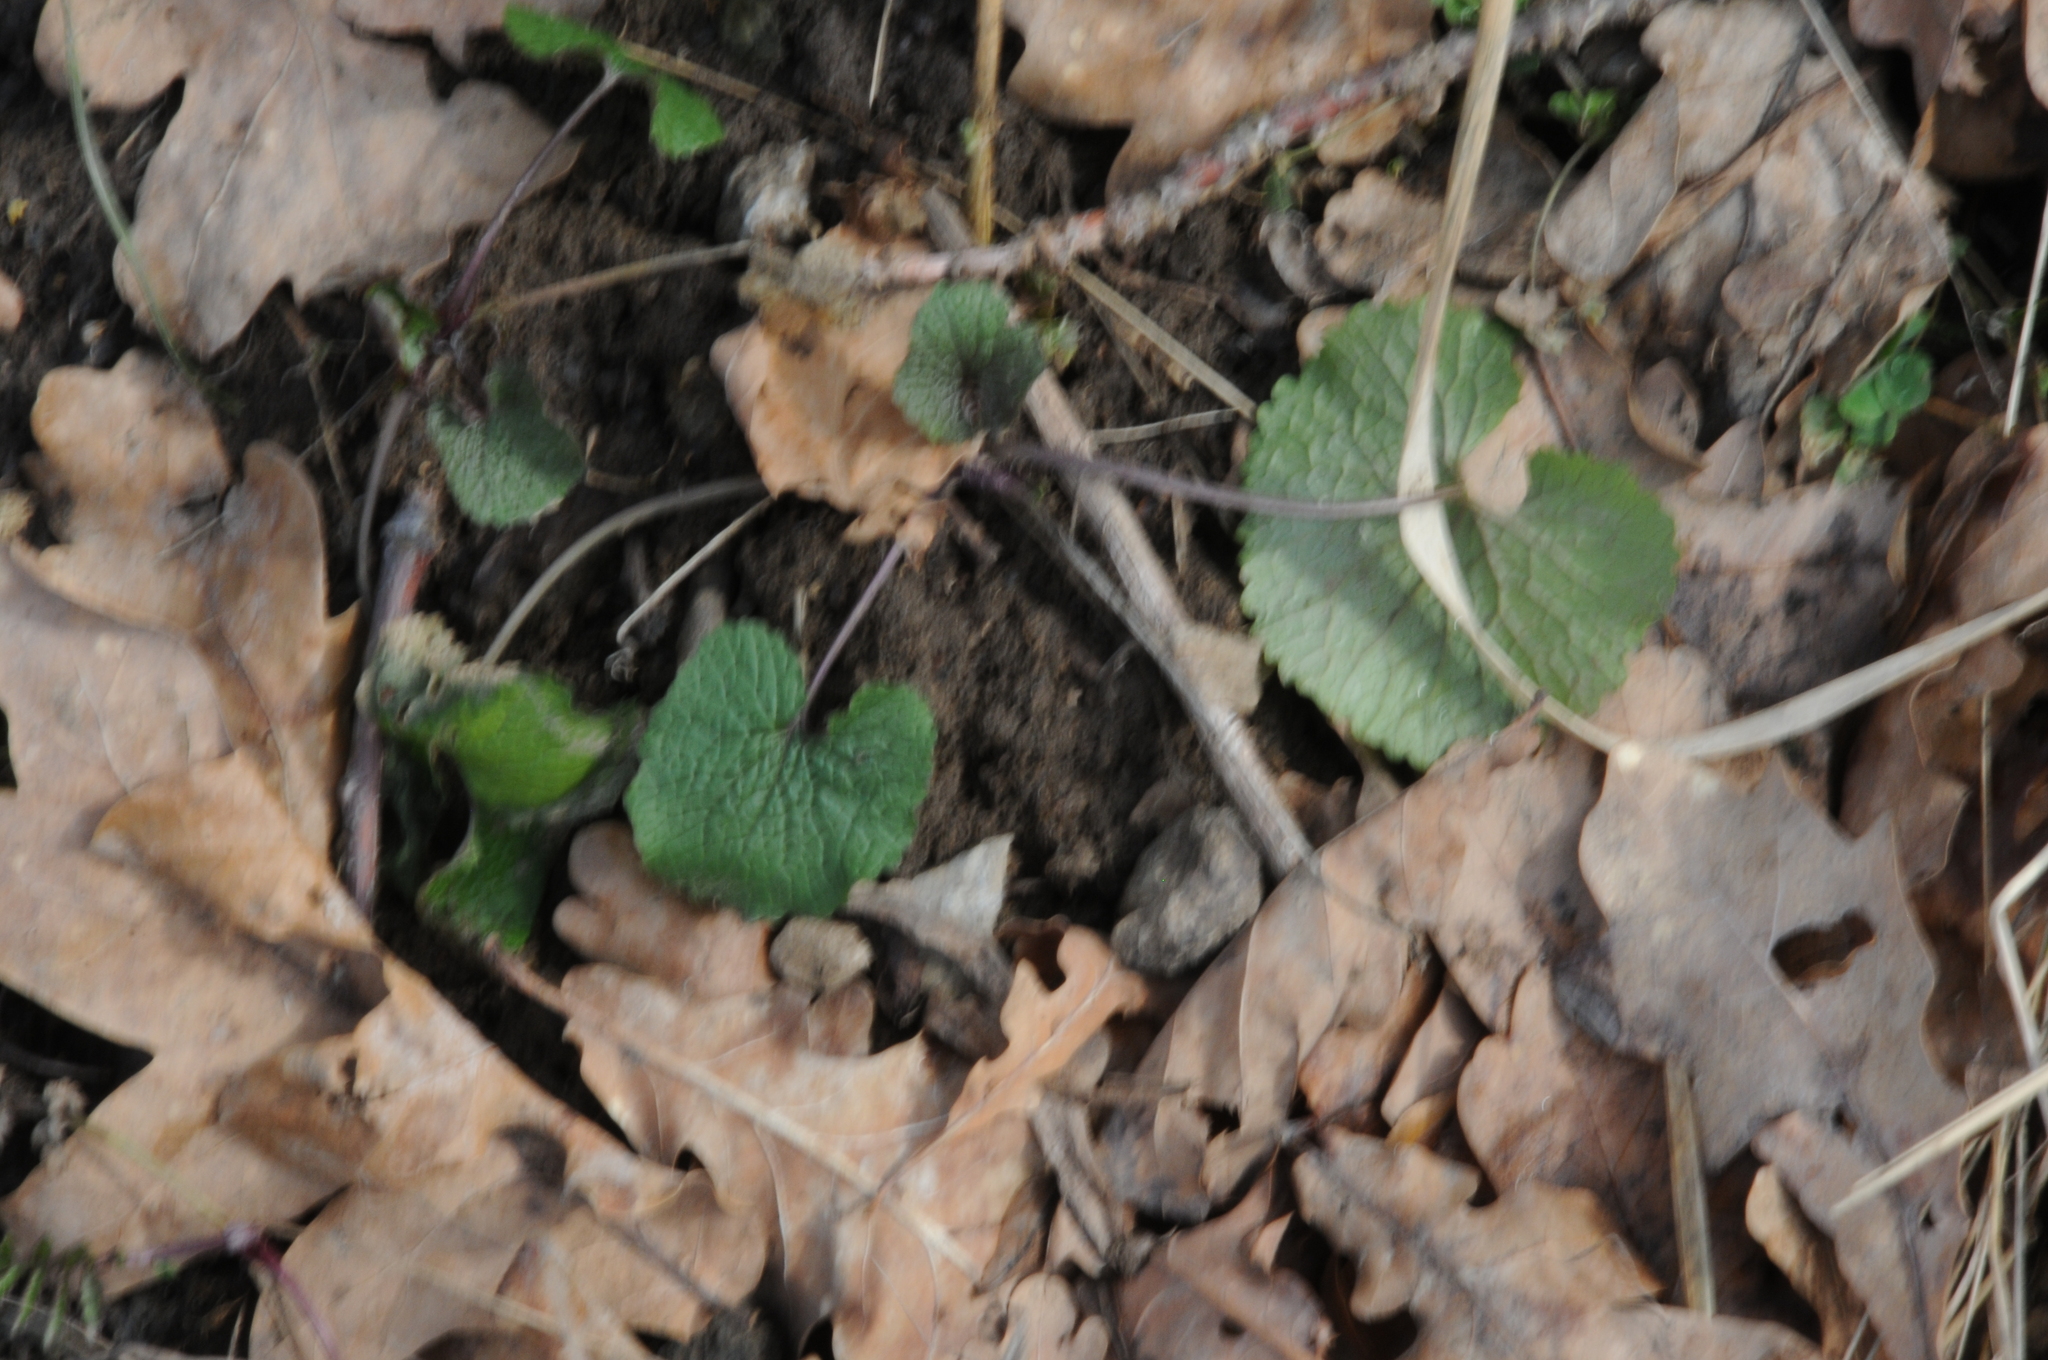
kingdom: Plantae
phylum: Tracheophyta
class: Magnoliopsida
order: Brassicales
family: Brassicaceae
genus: Alliaria
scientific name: Alliaria petiolata
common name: Garlic mustard
